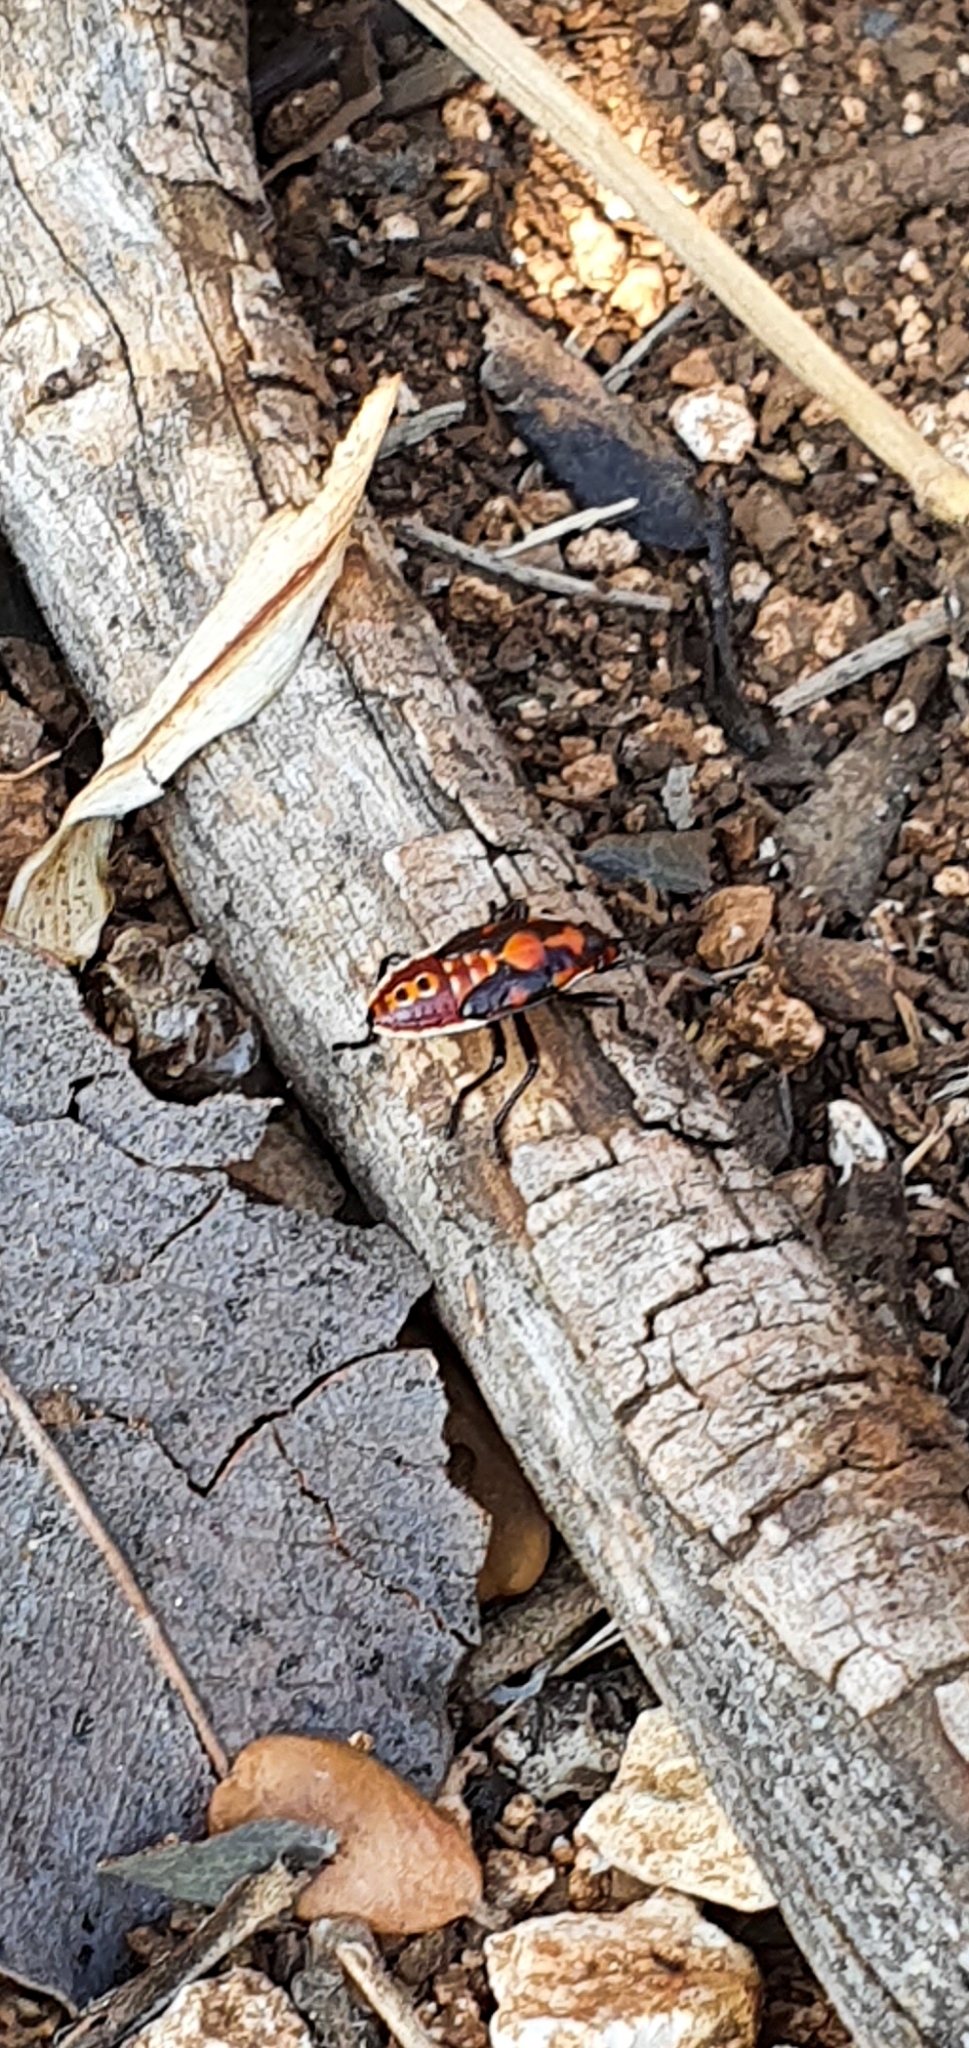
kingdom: Animalia
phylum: Arthropoda
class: Insecta
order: Hemiptera
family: Lygaeidae
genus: Spilostethus
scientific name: Spilostethus pandurus
